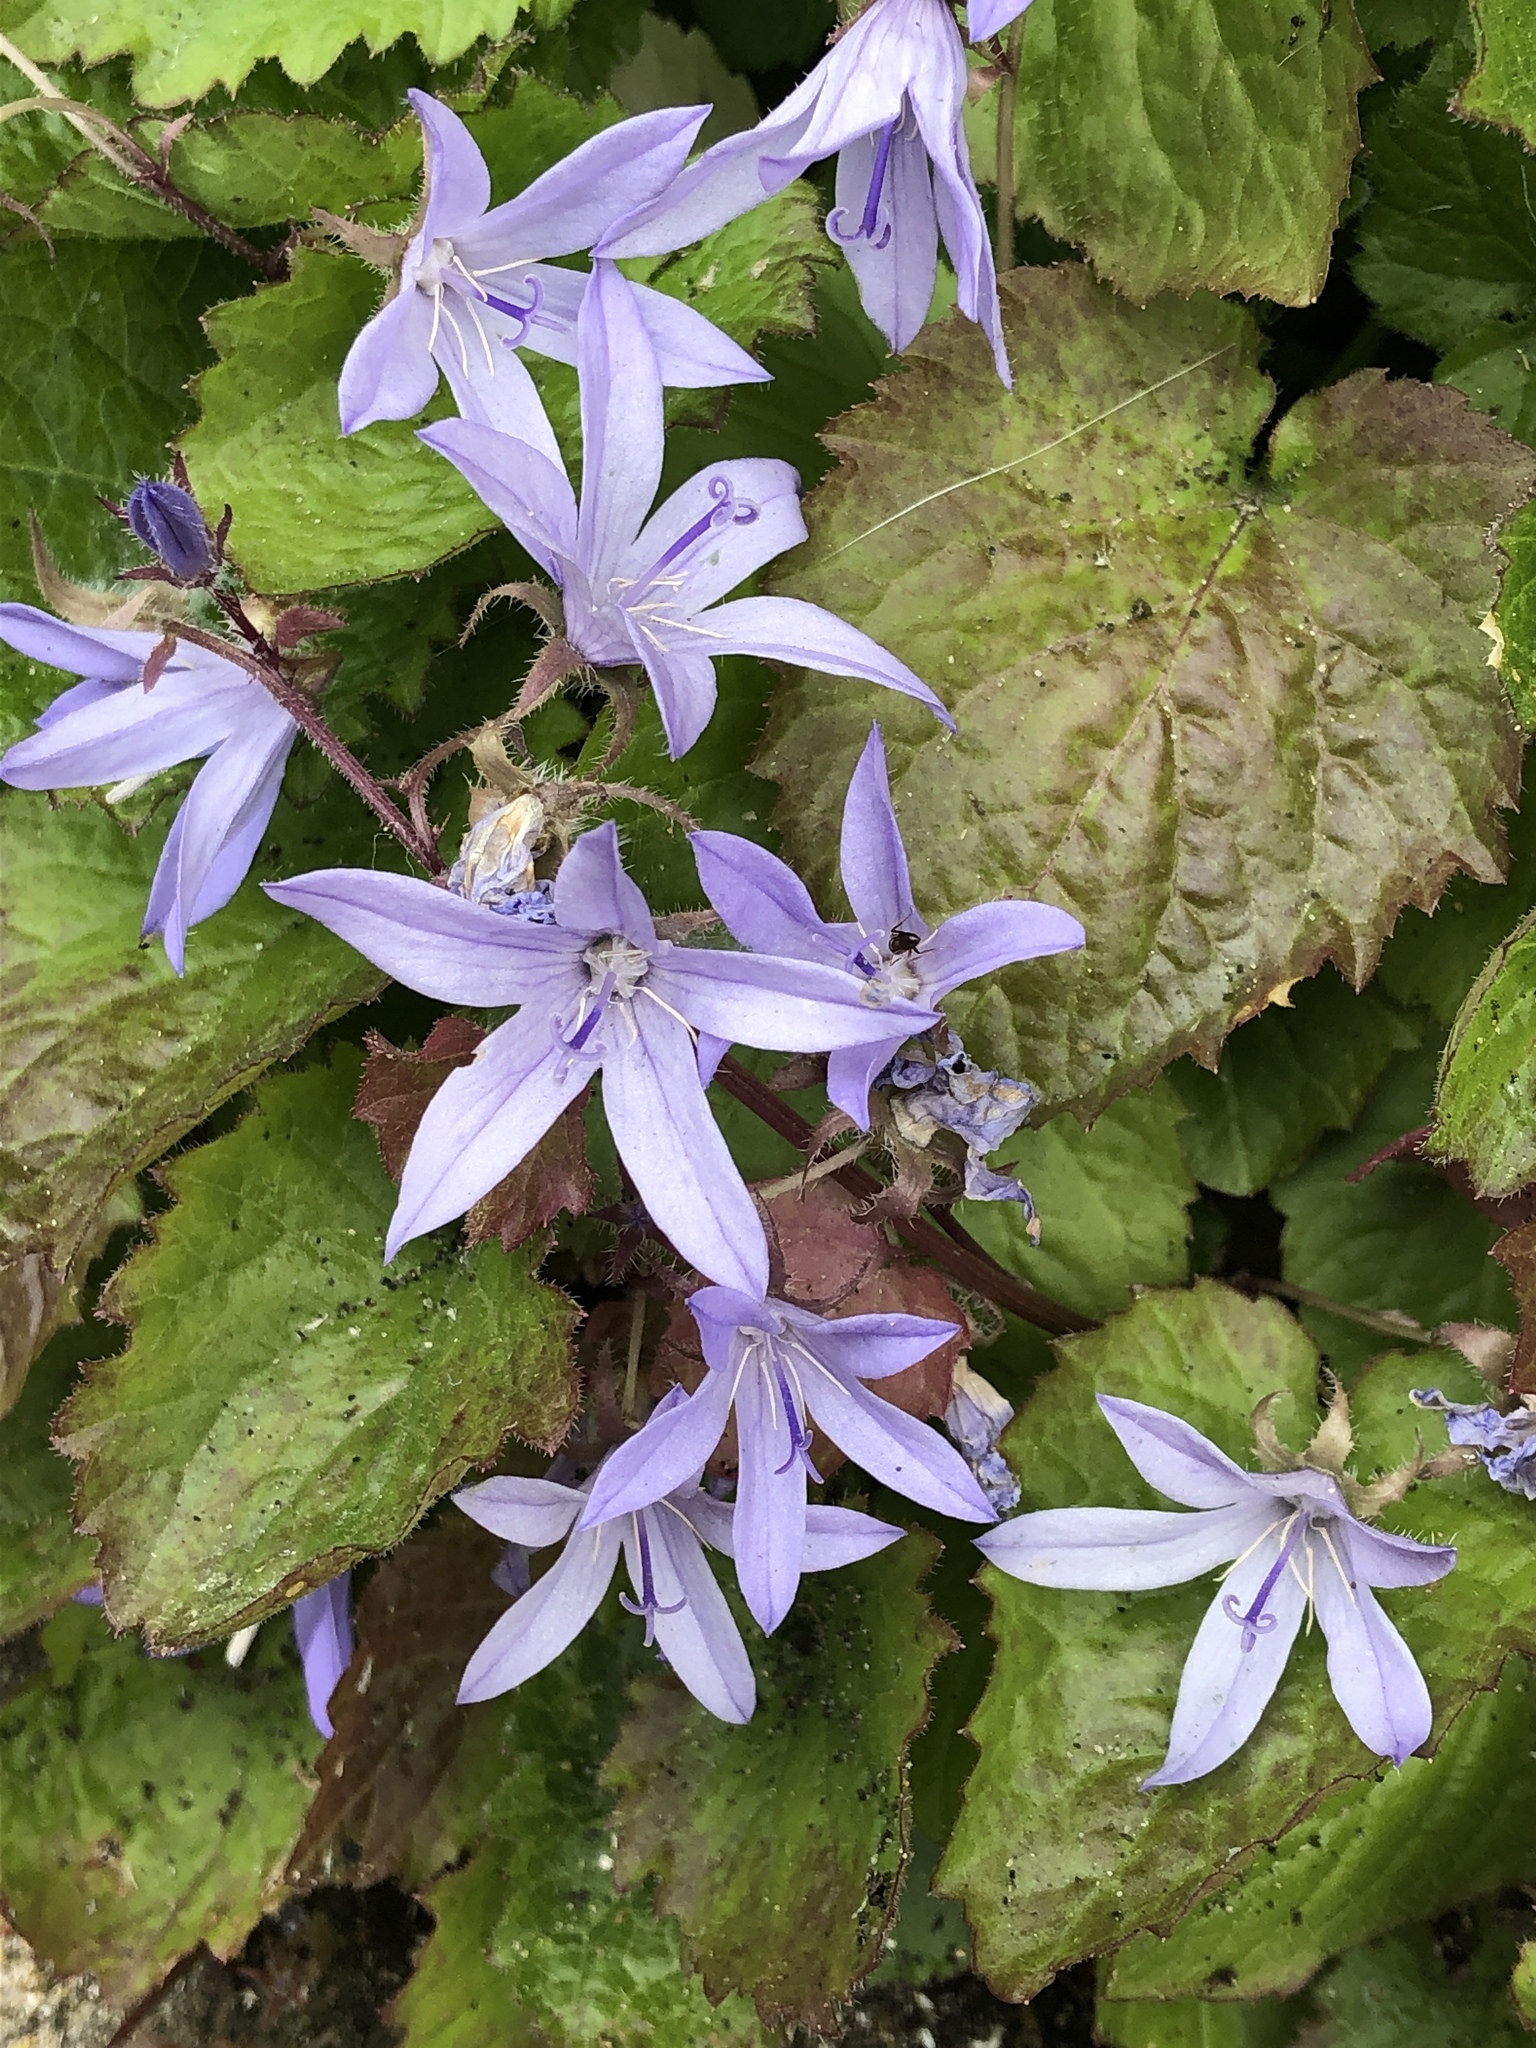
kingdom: Plantae
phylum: Tracheophyta
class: Magnoliopsida
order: Asterales
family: Campanulaceae
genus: Campanula
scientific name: Campanula poscharskyana
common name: Trailing bellflower
